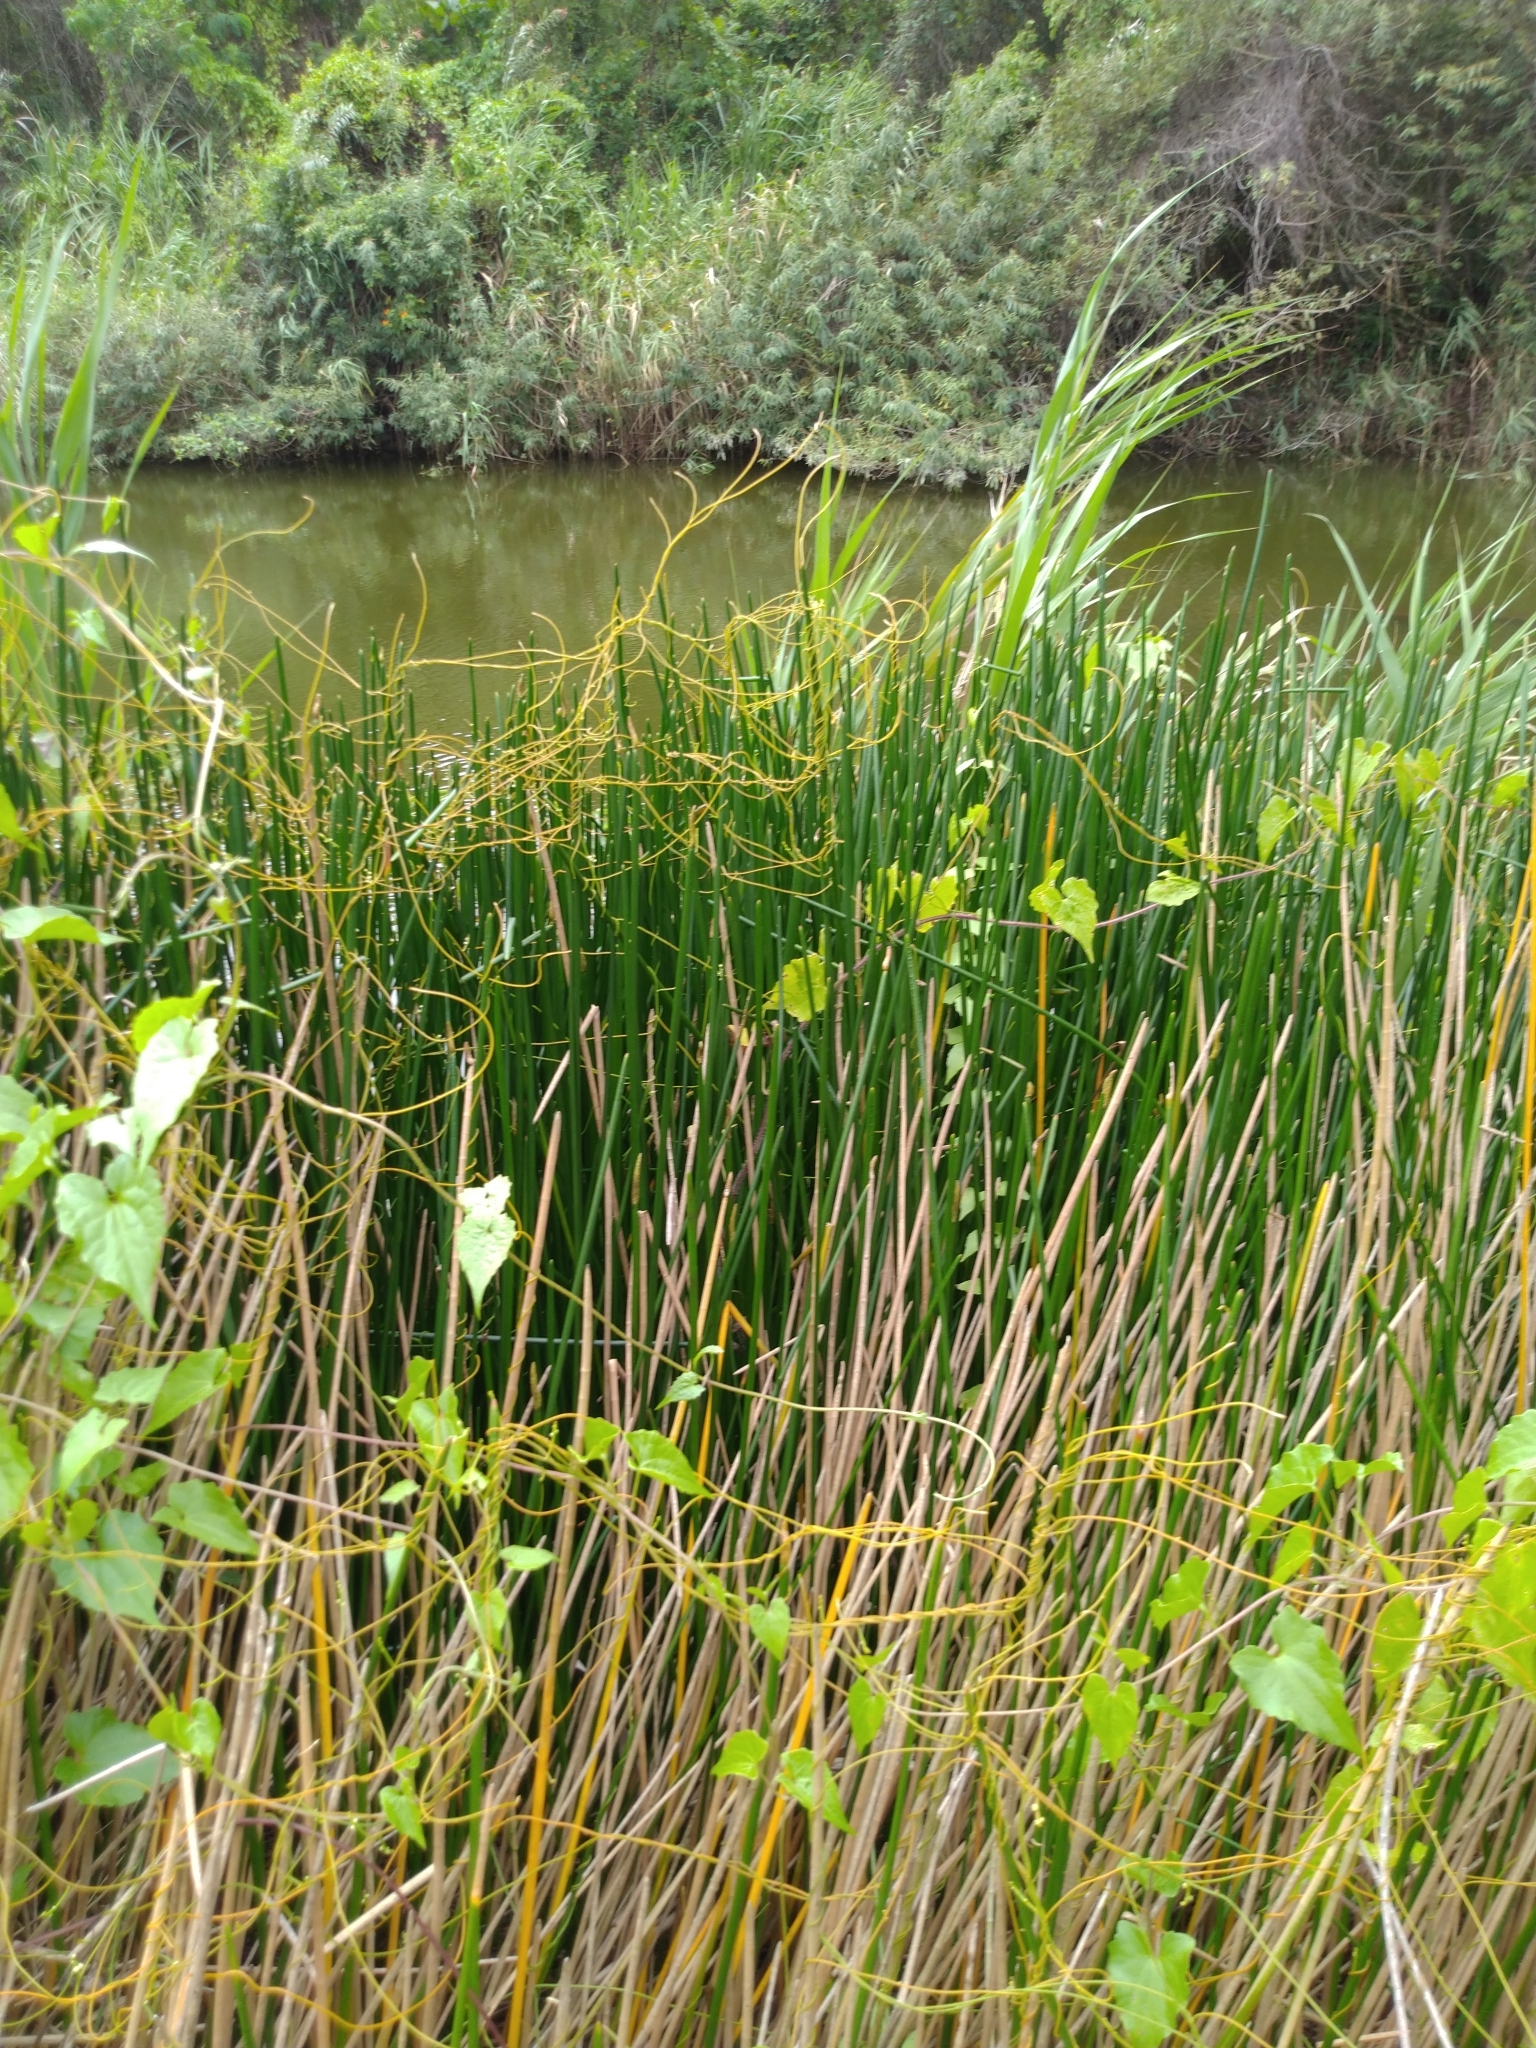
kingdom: Plantae
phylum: Tracheophyta
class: Liliopsida
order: Poales
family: Cyperaceae
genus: Eleocharis
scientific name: Eleocharis dulcis
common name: Chinese water chestnut
